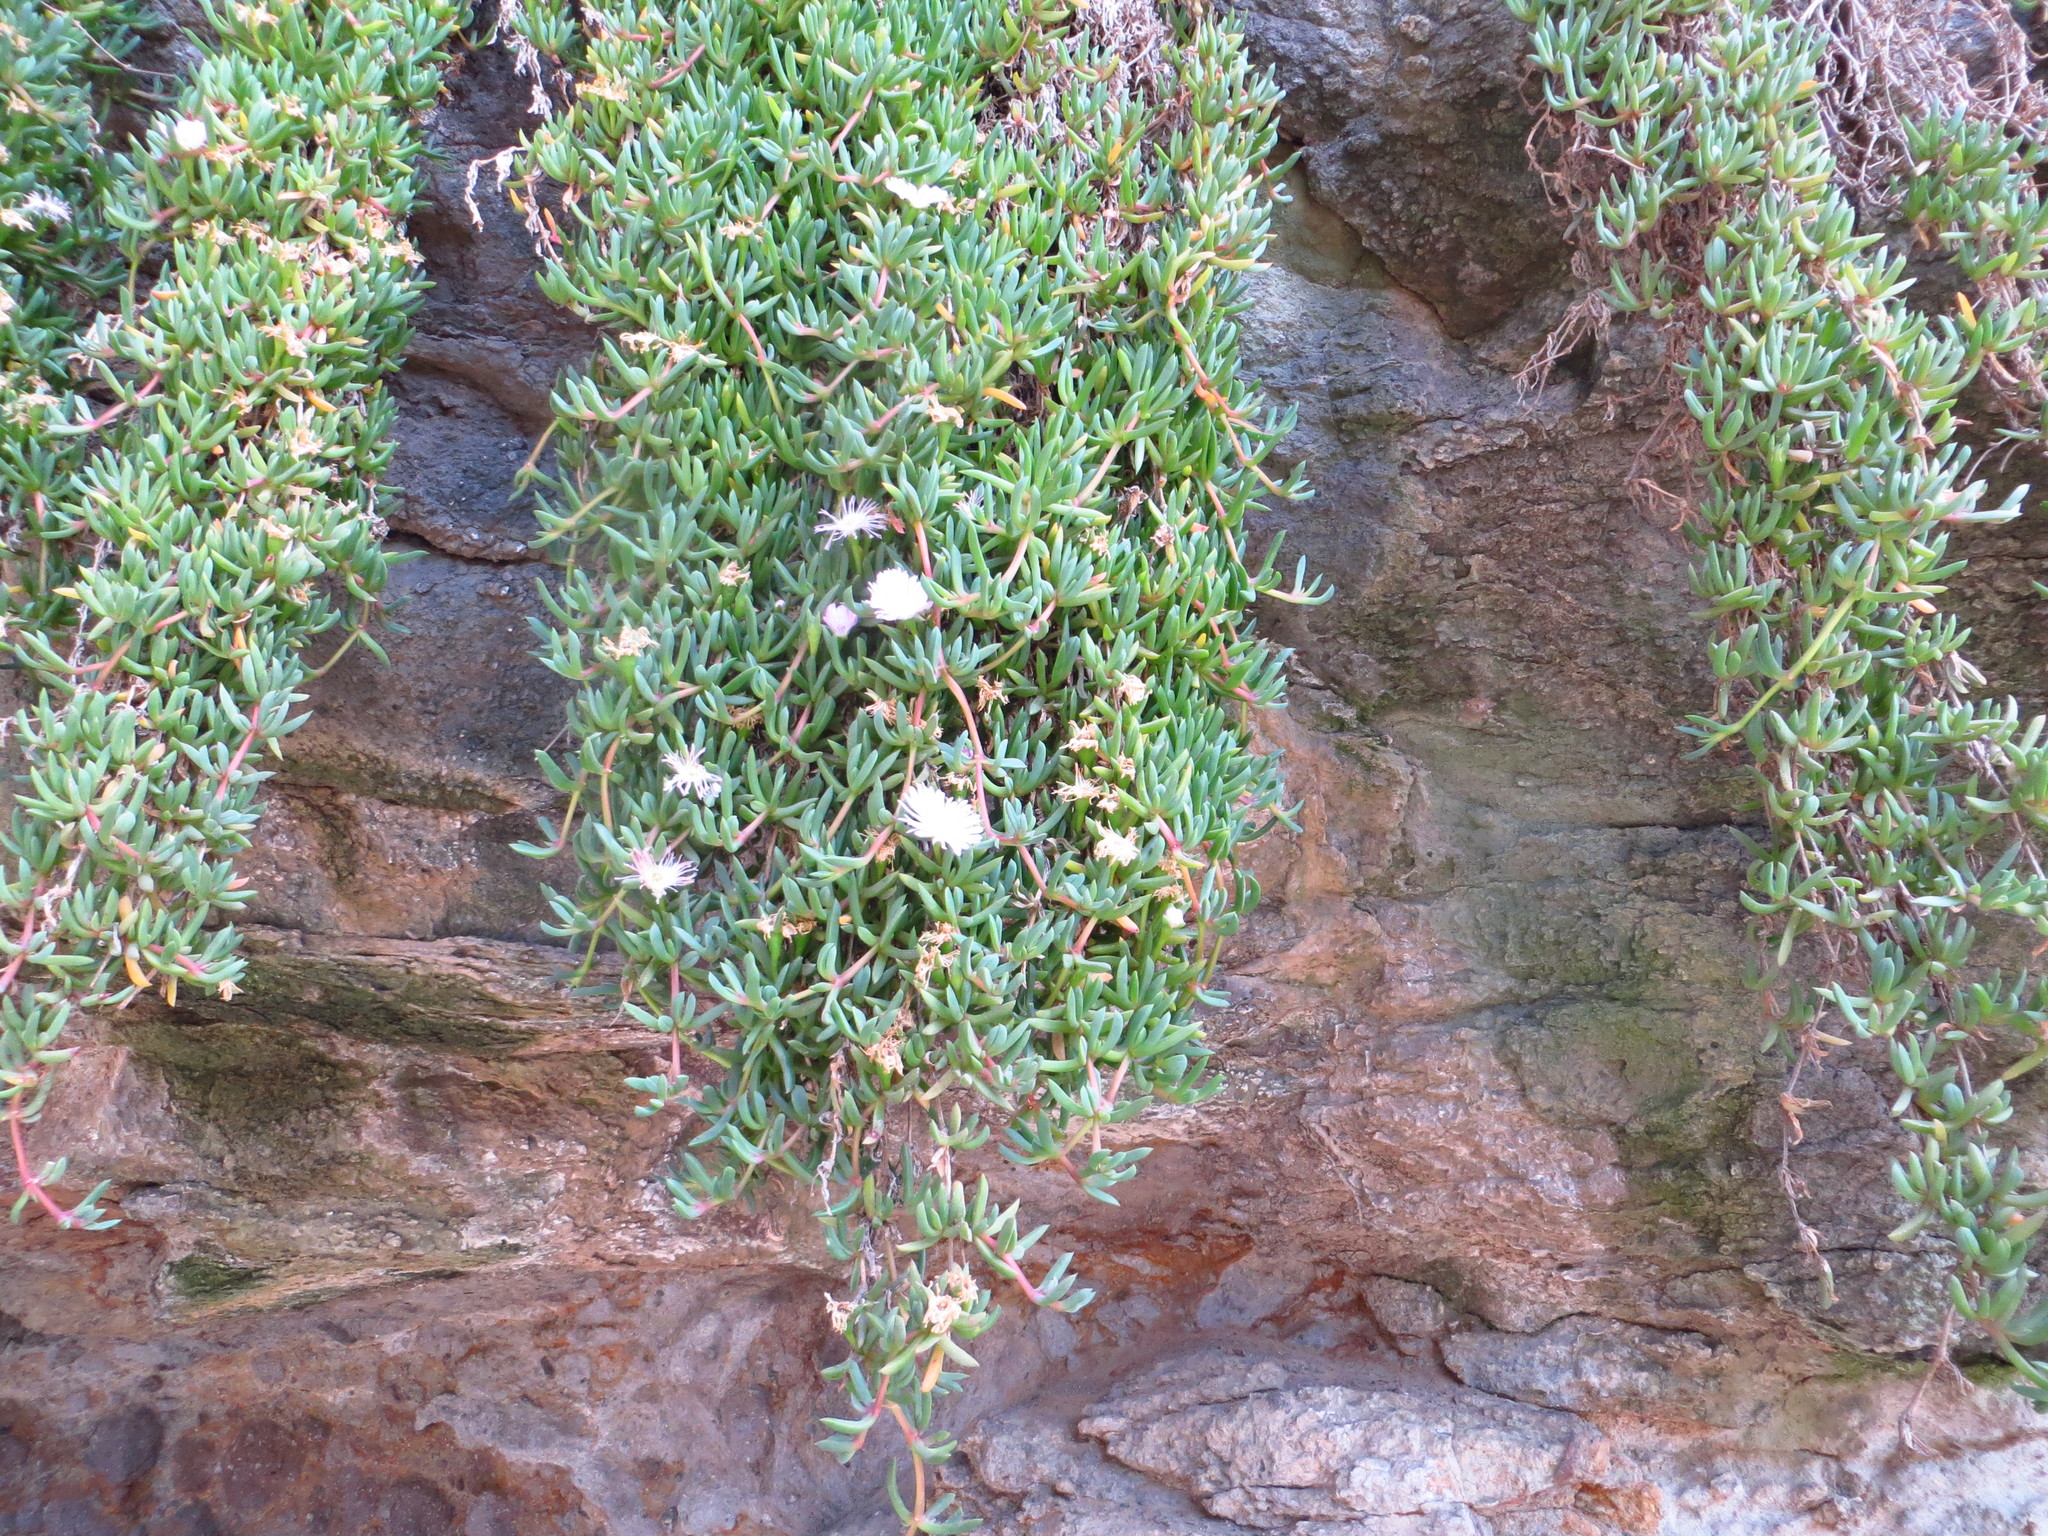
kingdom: Plantae
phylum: Tracheophyta
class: Magnoliopsida
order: Caryophyllales
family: Aizoaceae
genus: Disphyma
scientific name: Disphyma australe
